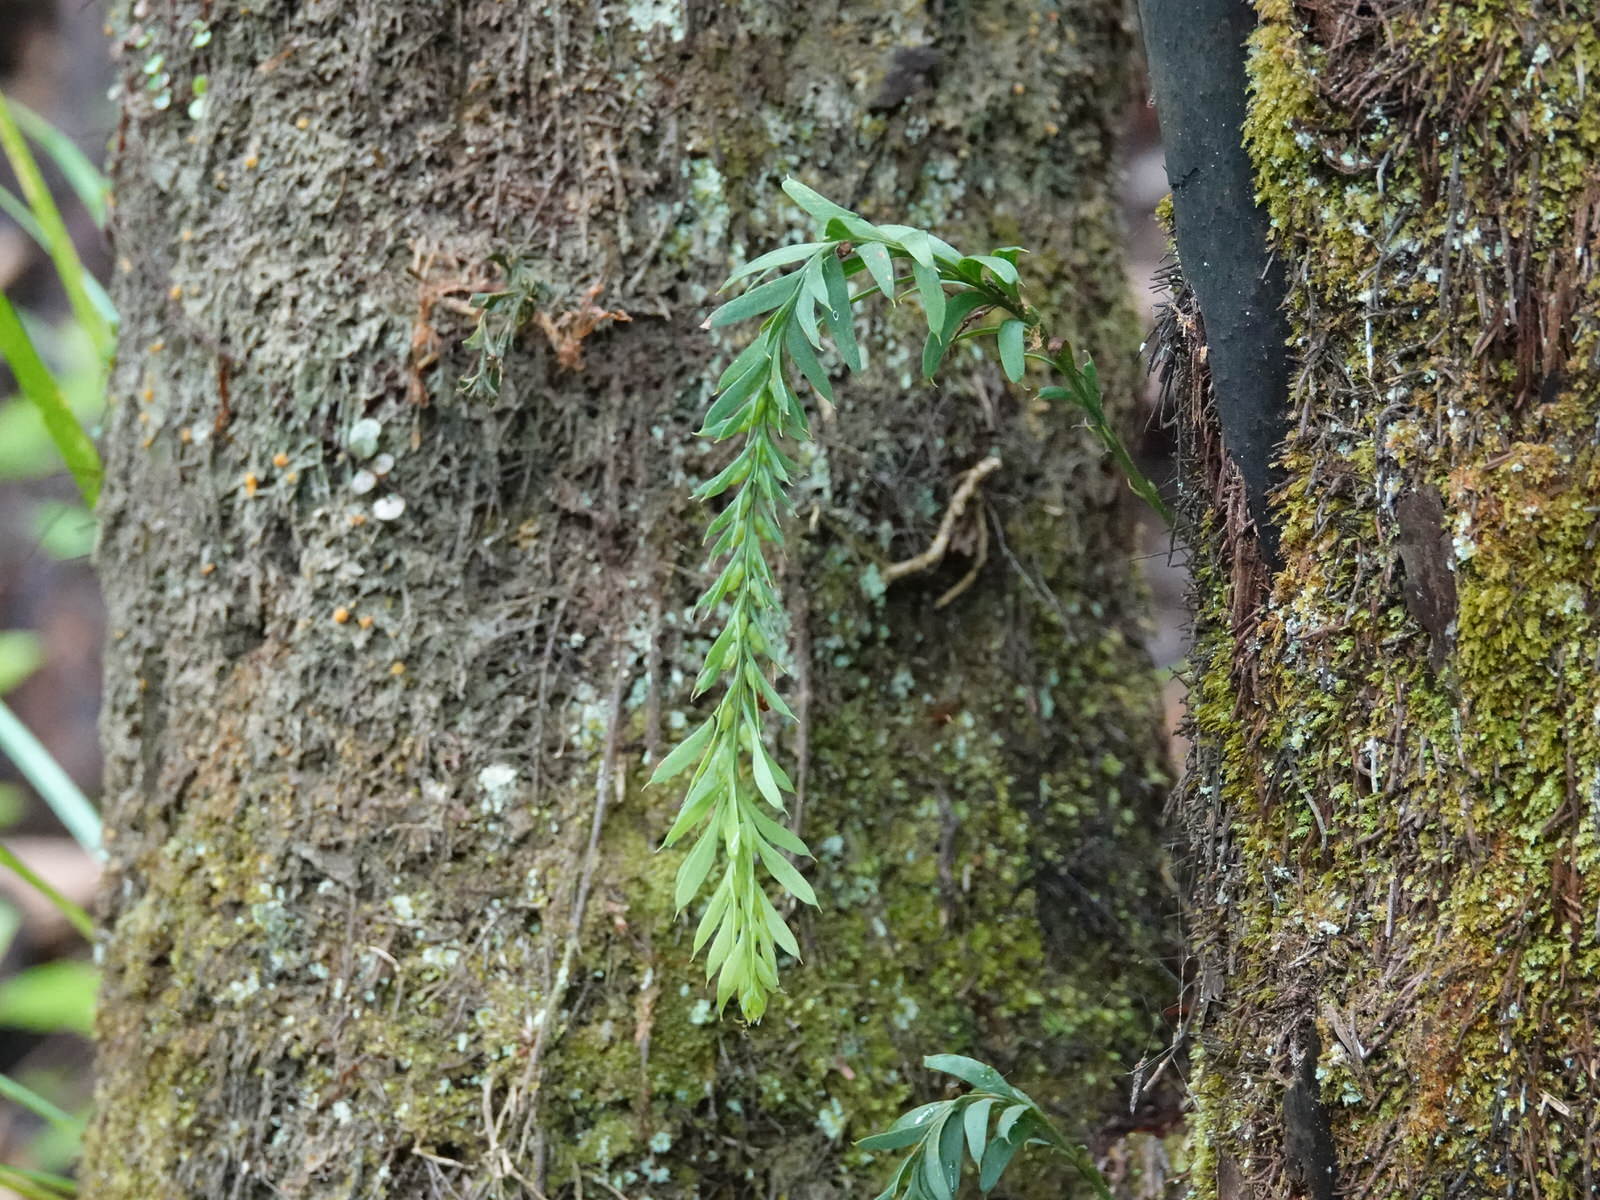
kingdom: Plantae
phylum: Tracheophyta
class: Polypodiopsida
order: Psilotales
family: Psilotaceae
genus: Tmesipteris
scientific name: Tmesipteris elongata
